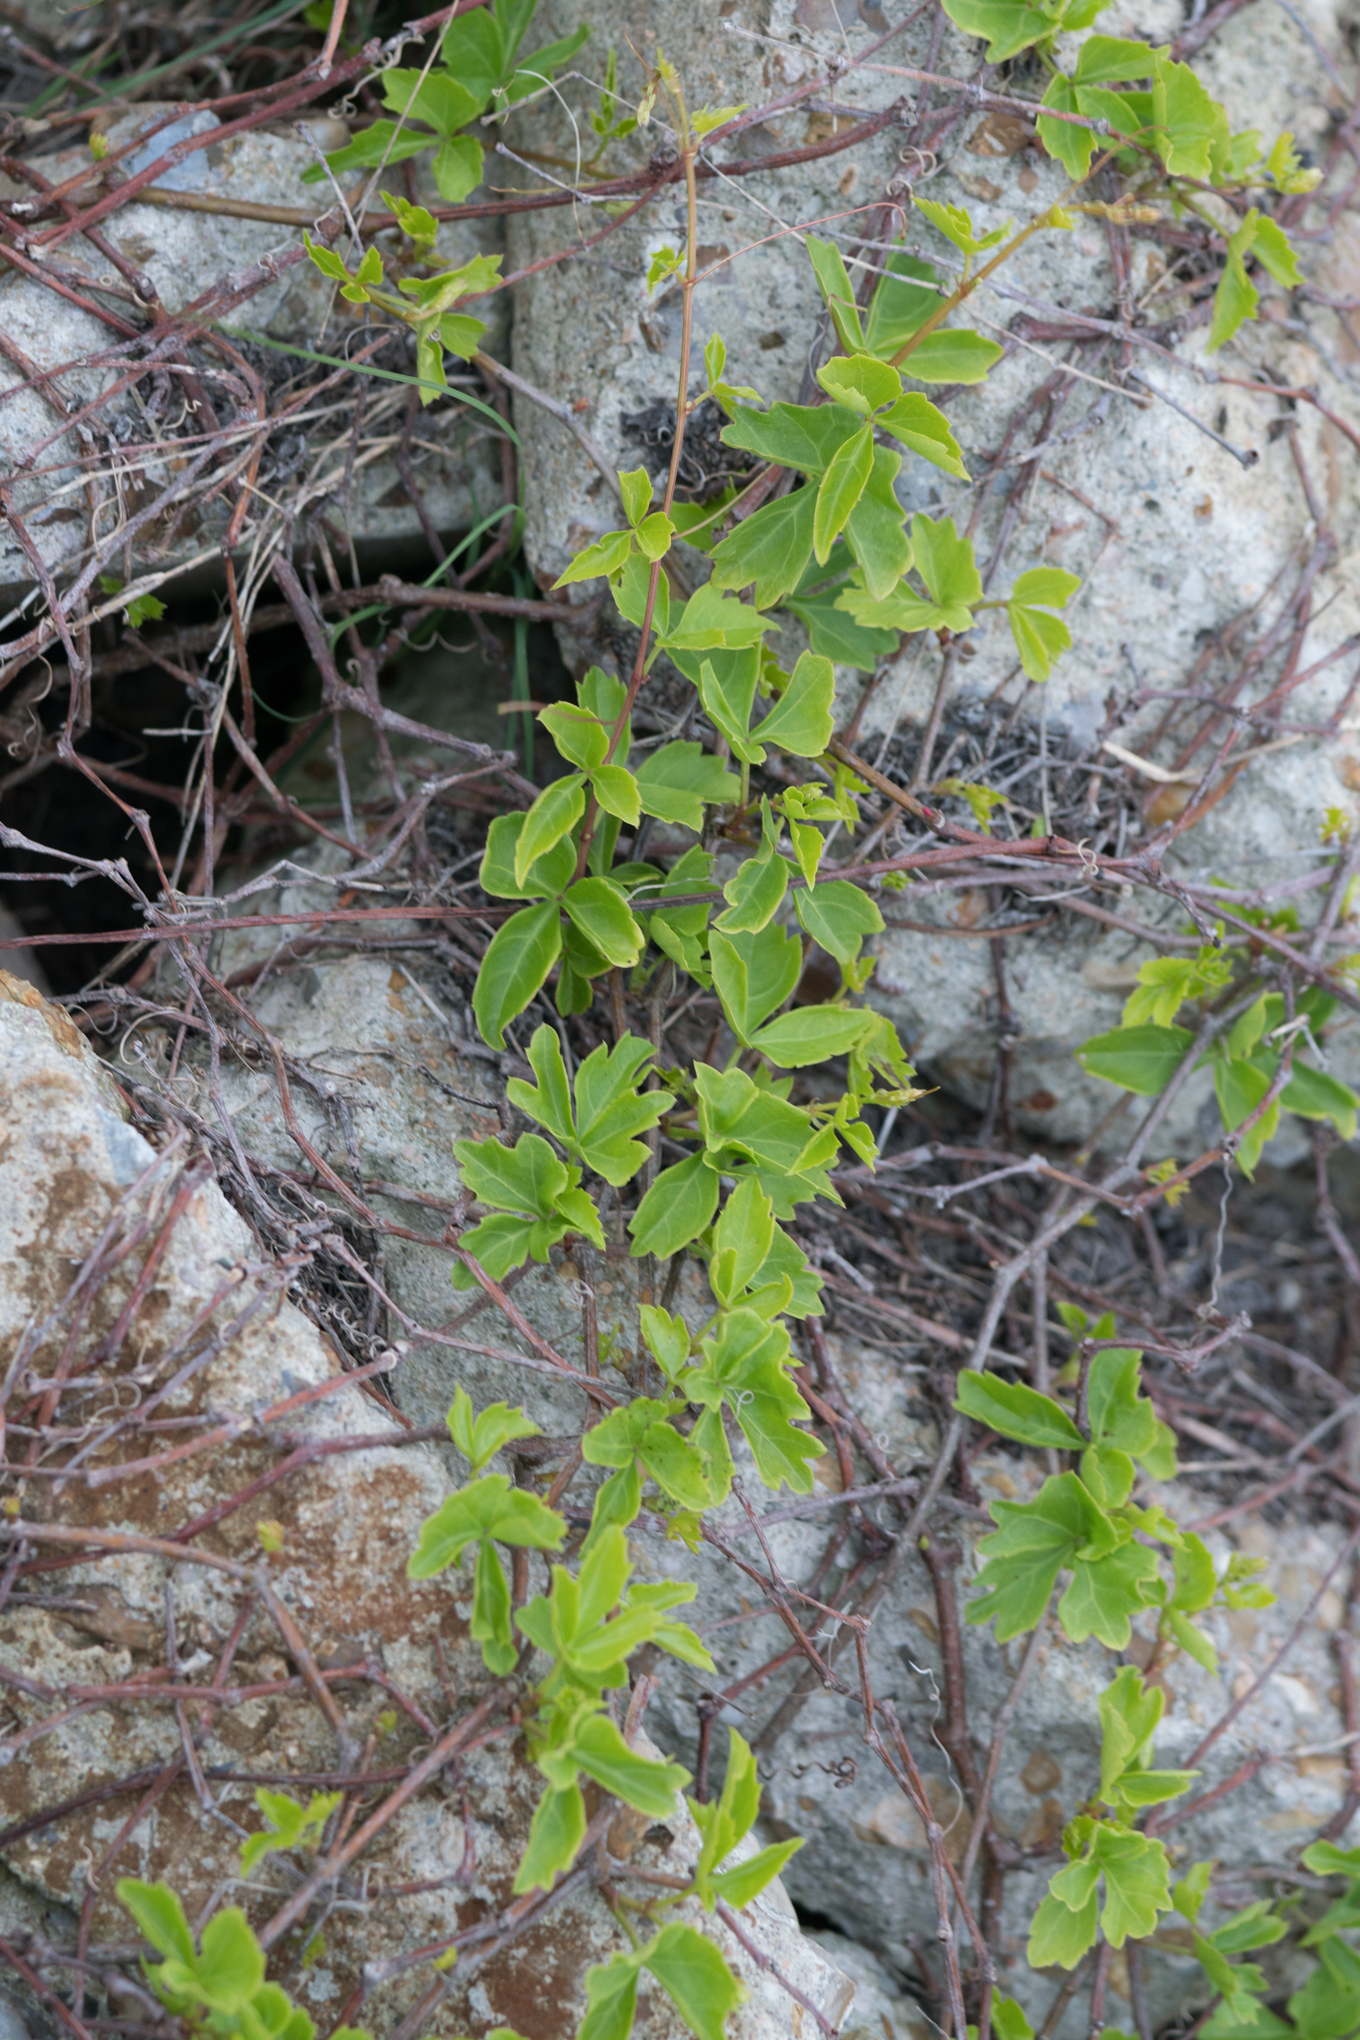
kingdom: Plantae
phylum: Tracheophyta
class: Magnoliopsida
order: Vitales
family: Vitaceae
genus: Cissus
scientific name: Cissus trifoliata
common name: Vine-sorrel
